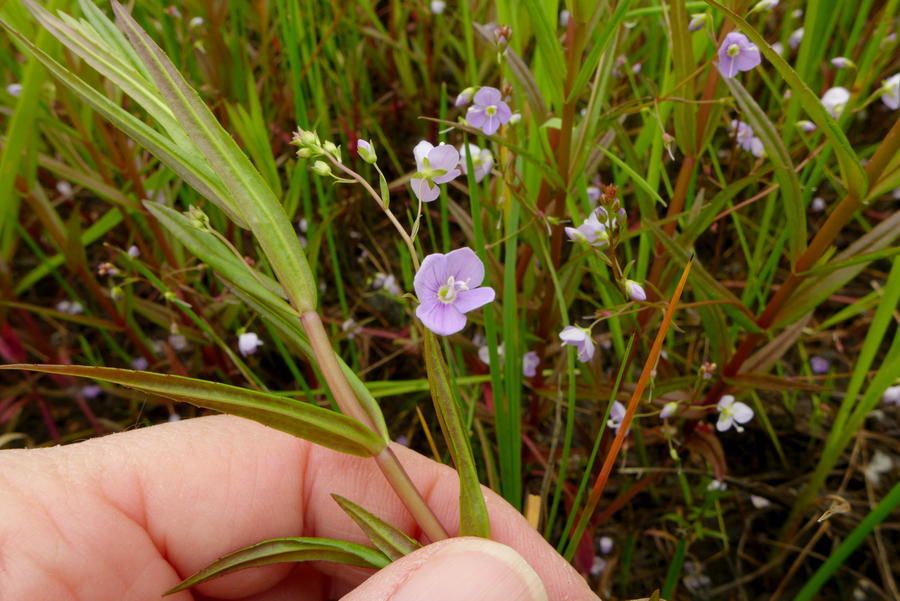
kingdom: Plantae
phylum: Tracheophyta
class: Magnoliopsida
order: Lamiales
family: Plantaginaceae
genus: Veronica
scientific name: Veronica scutellata
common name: Marsh speedwell
